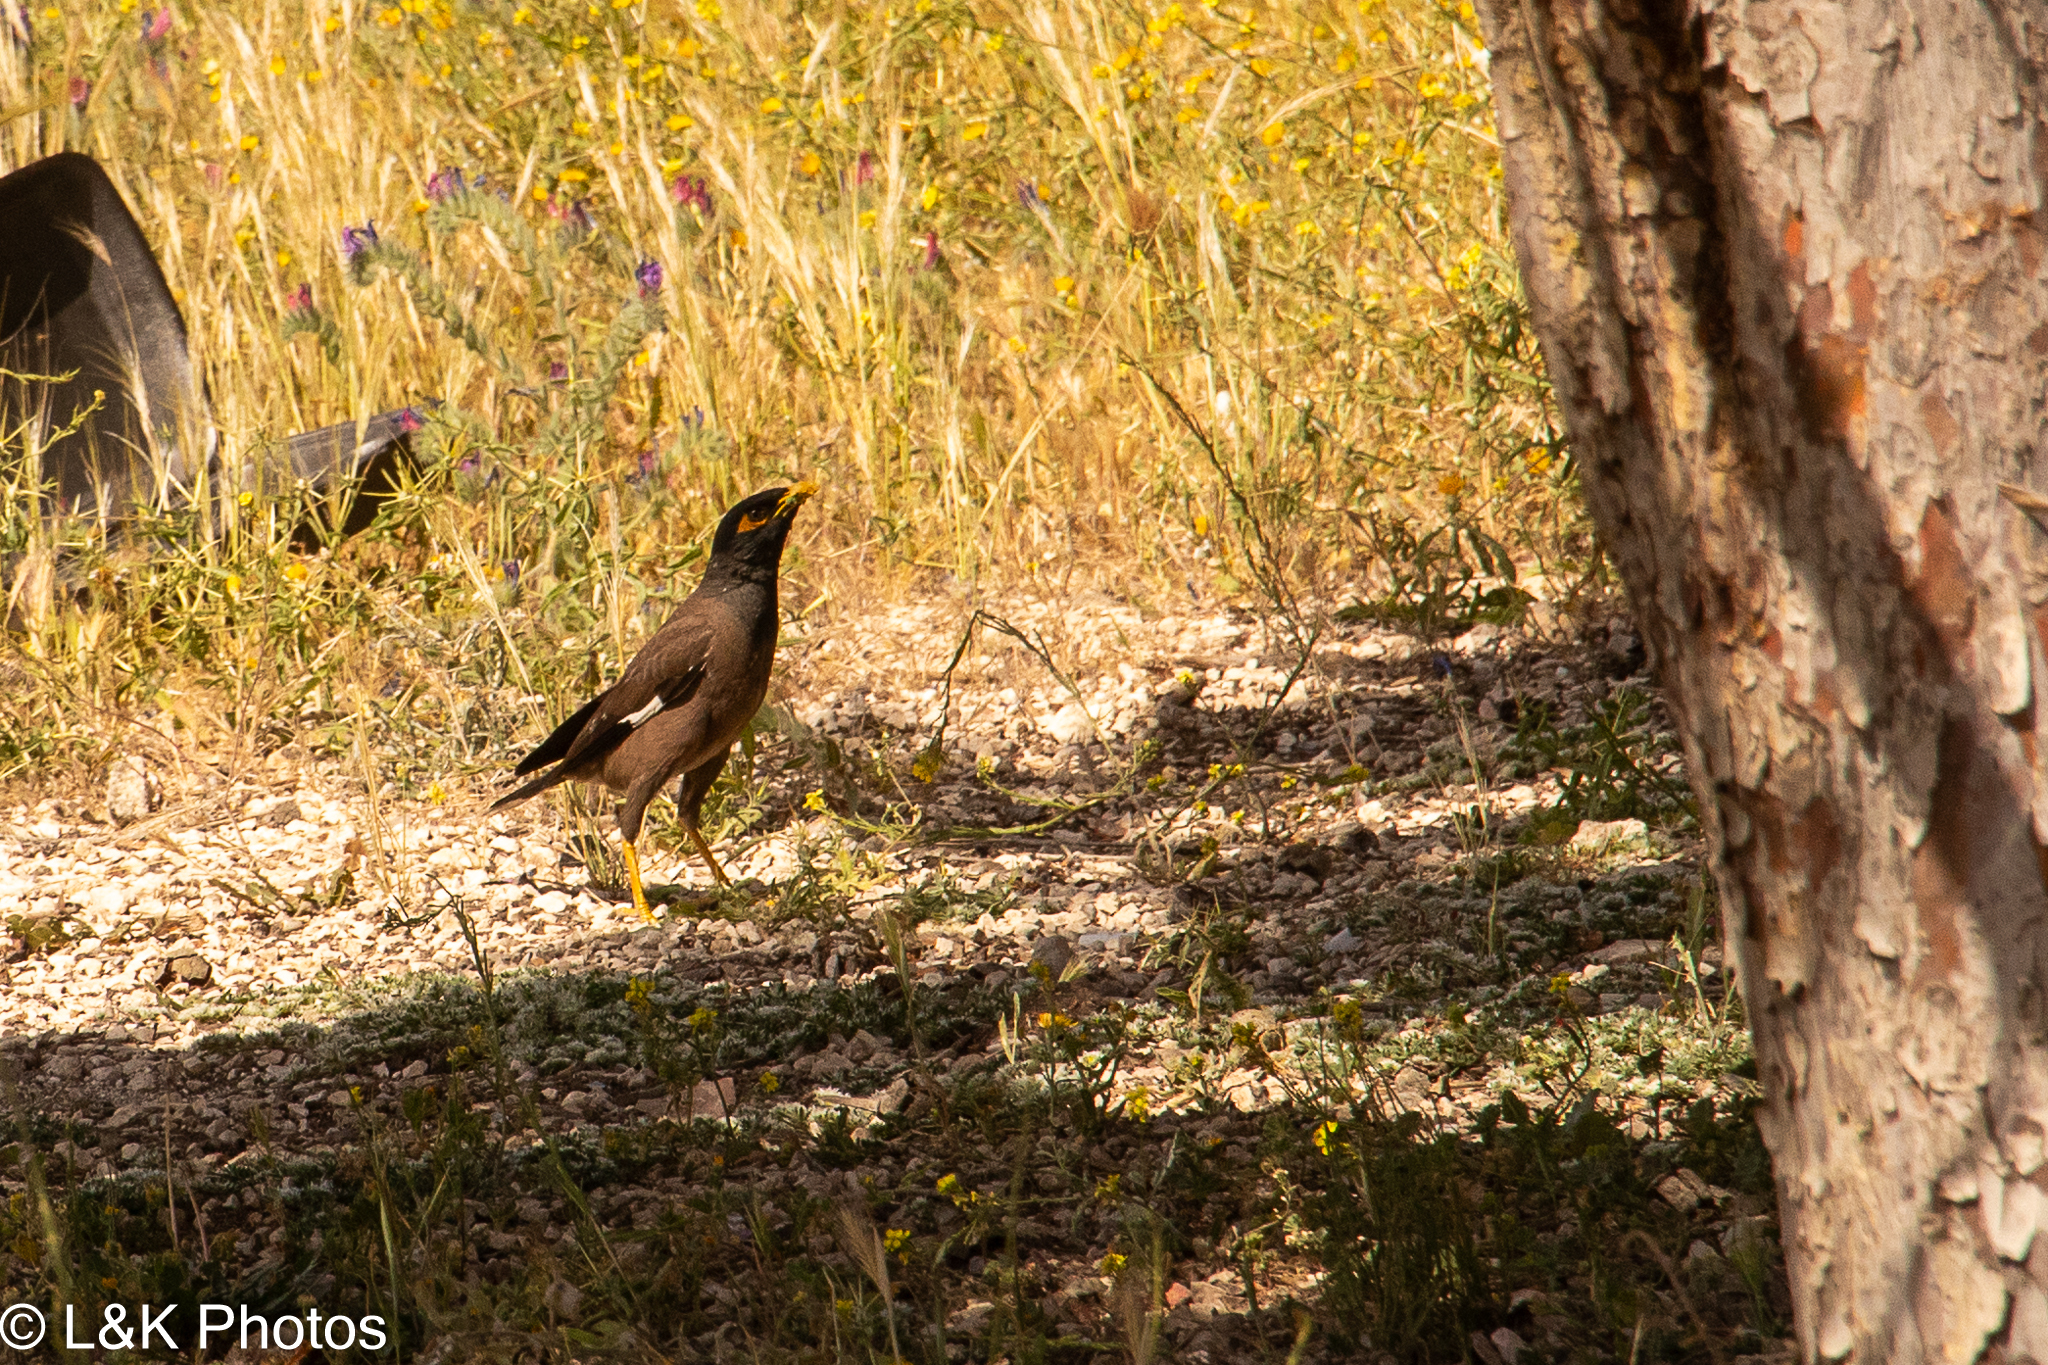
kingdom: Animalia
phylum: Chordata
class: Aves
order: Passeriformes
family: Sturnidae
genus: Acridotheres
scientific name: Acridotheres tristis
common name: Common myna
